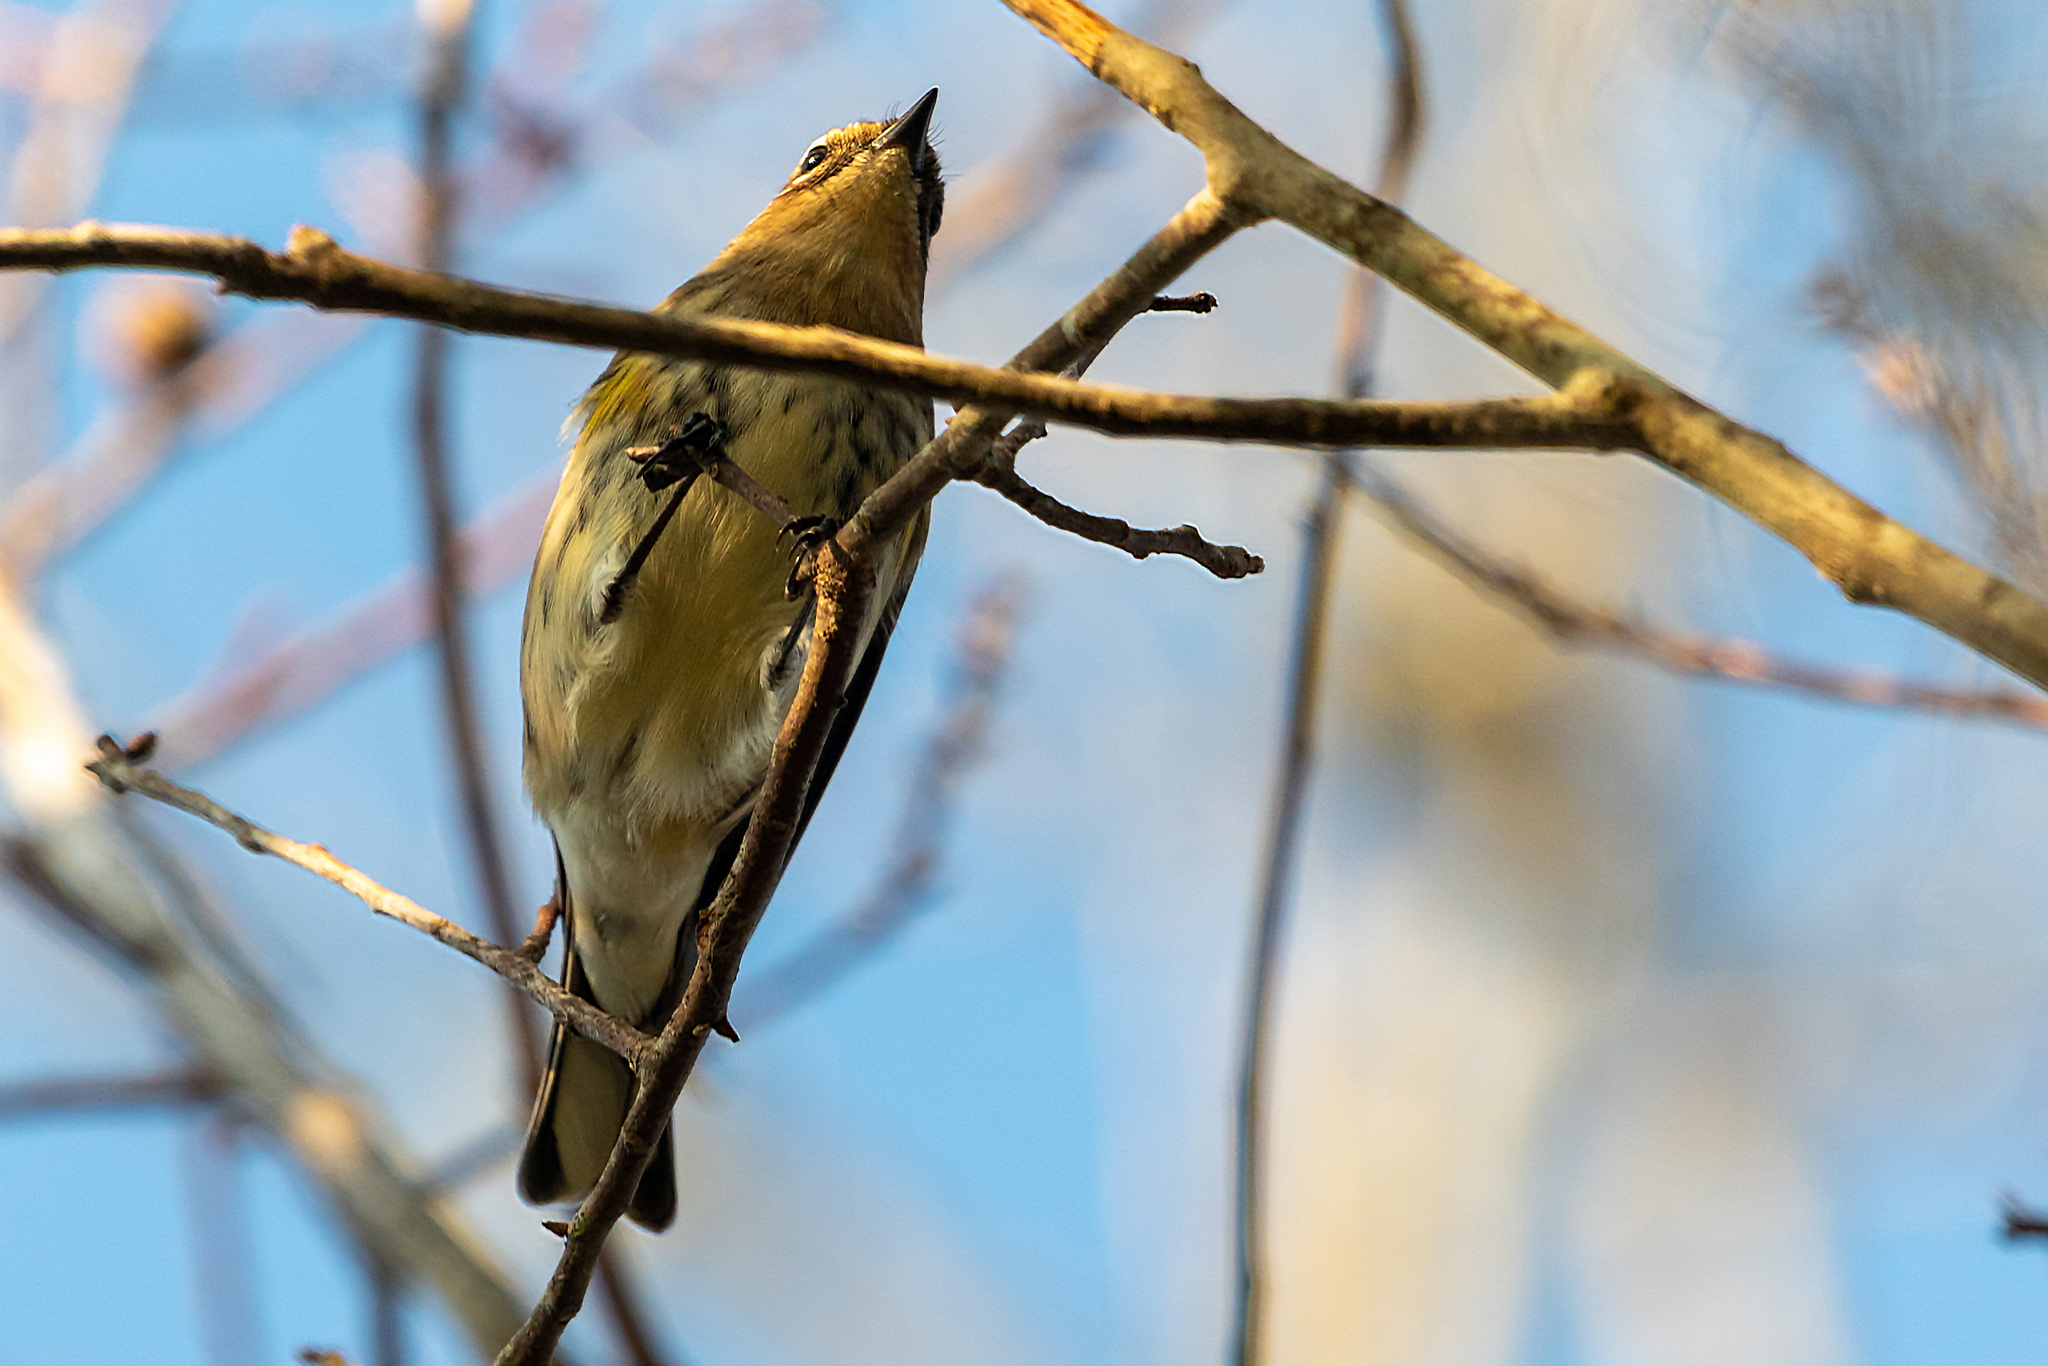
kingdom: Animalia
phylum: Chordata
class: Aves
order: Passeriformes
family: Parulidae
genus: Setophaga
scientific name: Setophaga coronata
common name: Myrtle warbler
